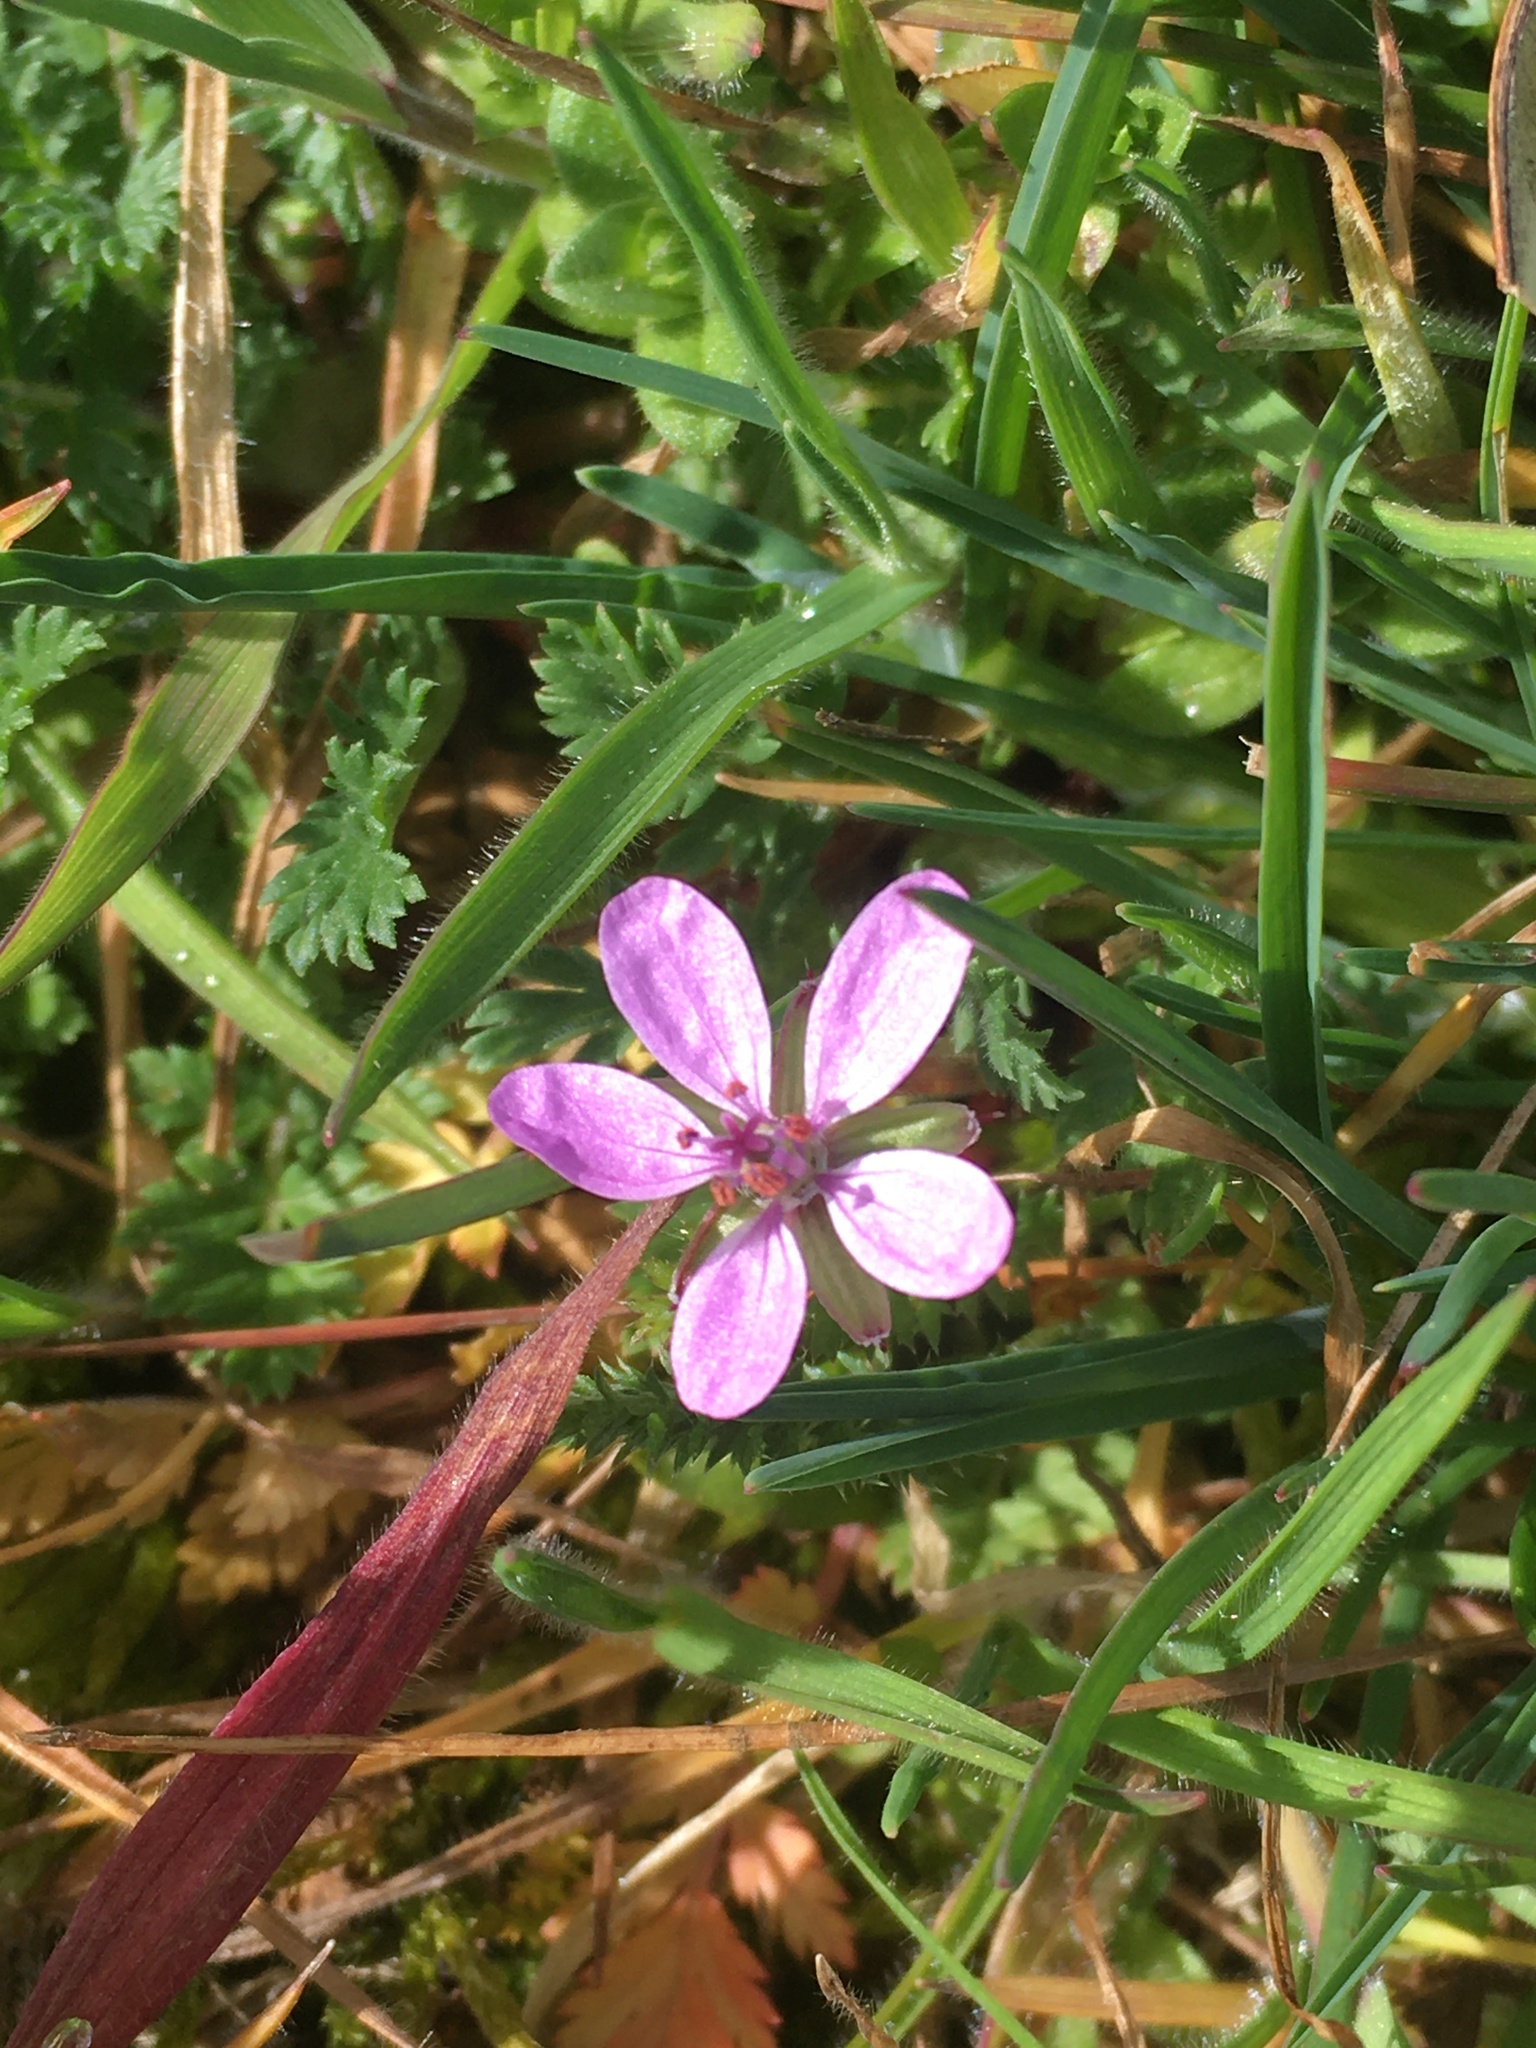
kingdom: Plantae
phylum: Tracheophyta
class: Magnoliopsida
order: Geraniales
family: Geraniaceae
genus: Erodium
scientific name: Erodium cicutarium
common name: Common stork's-bill
